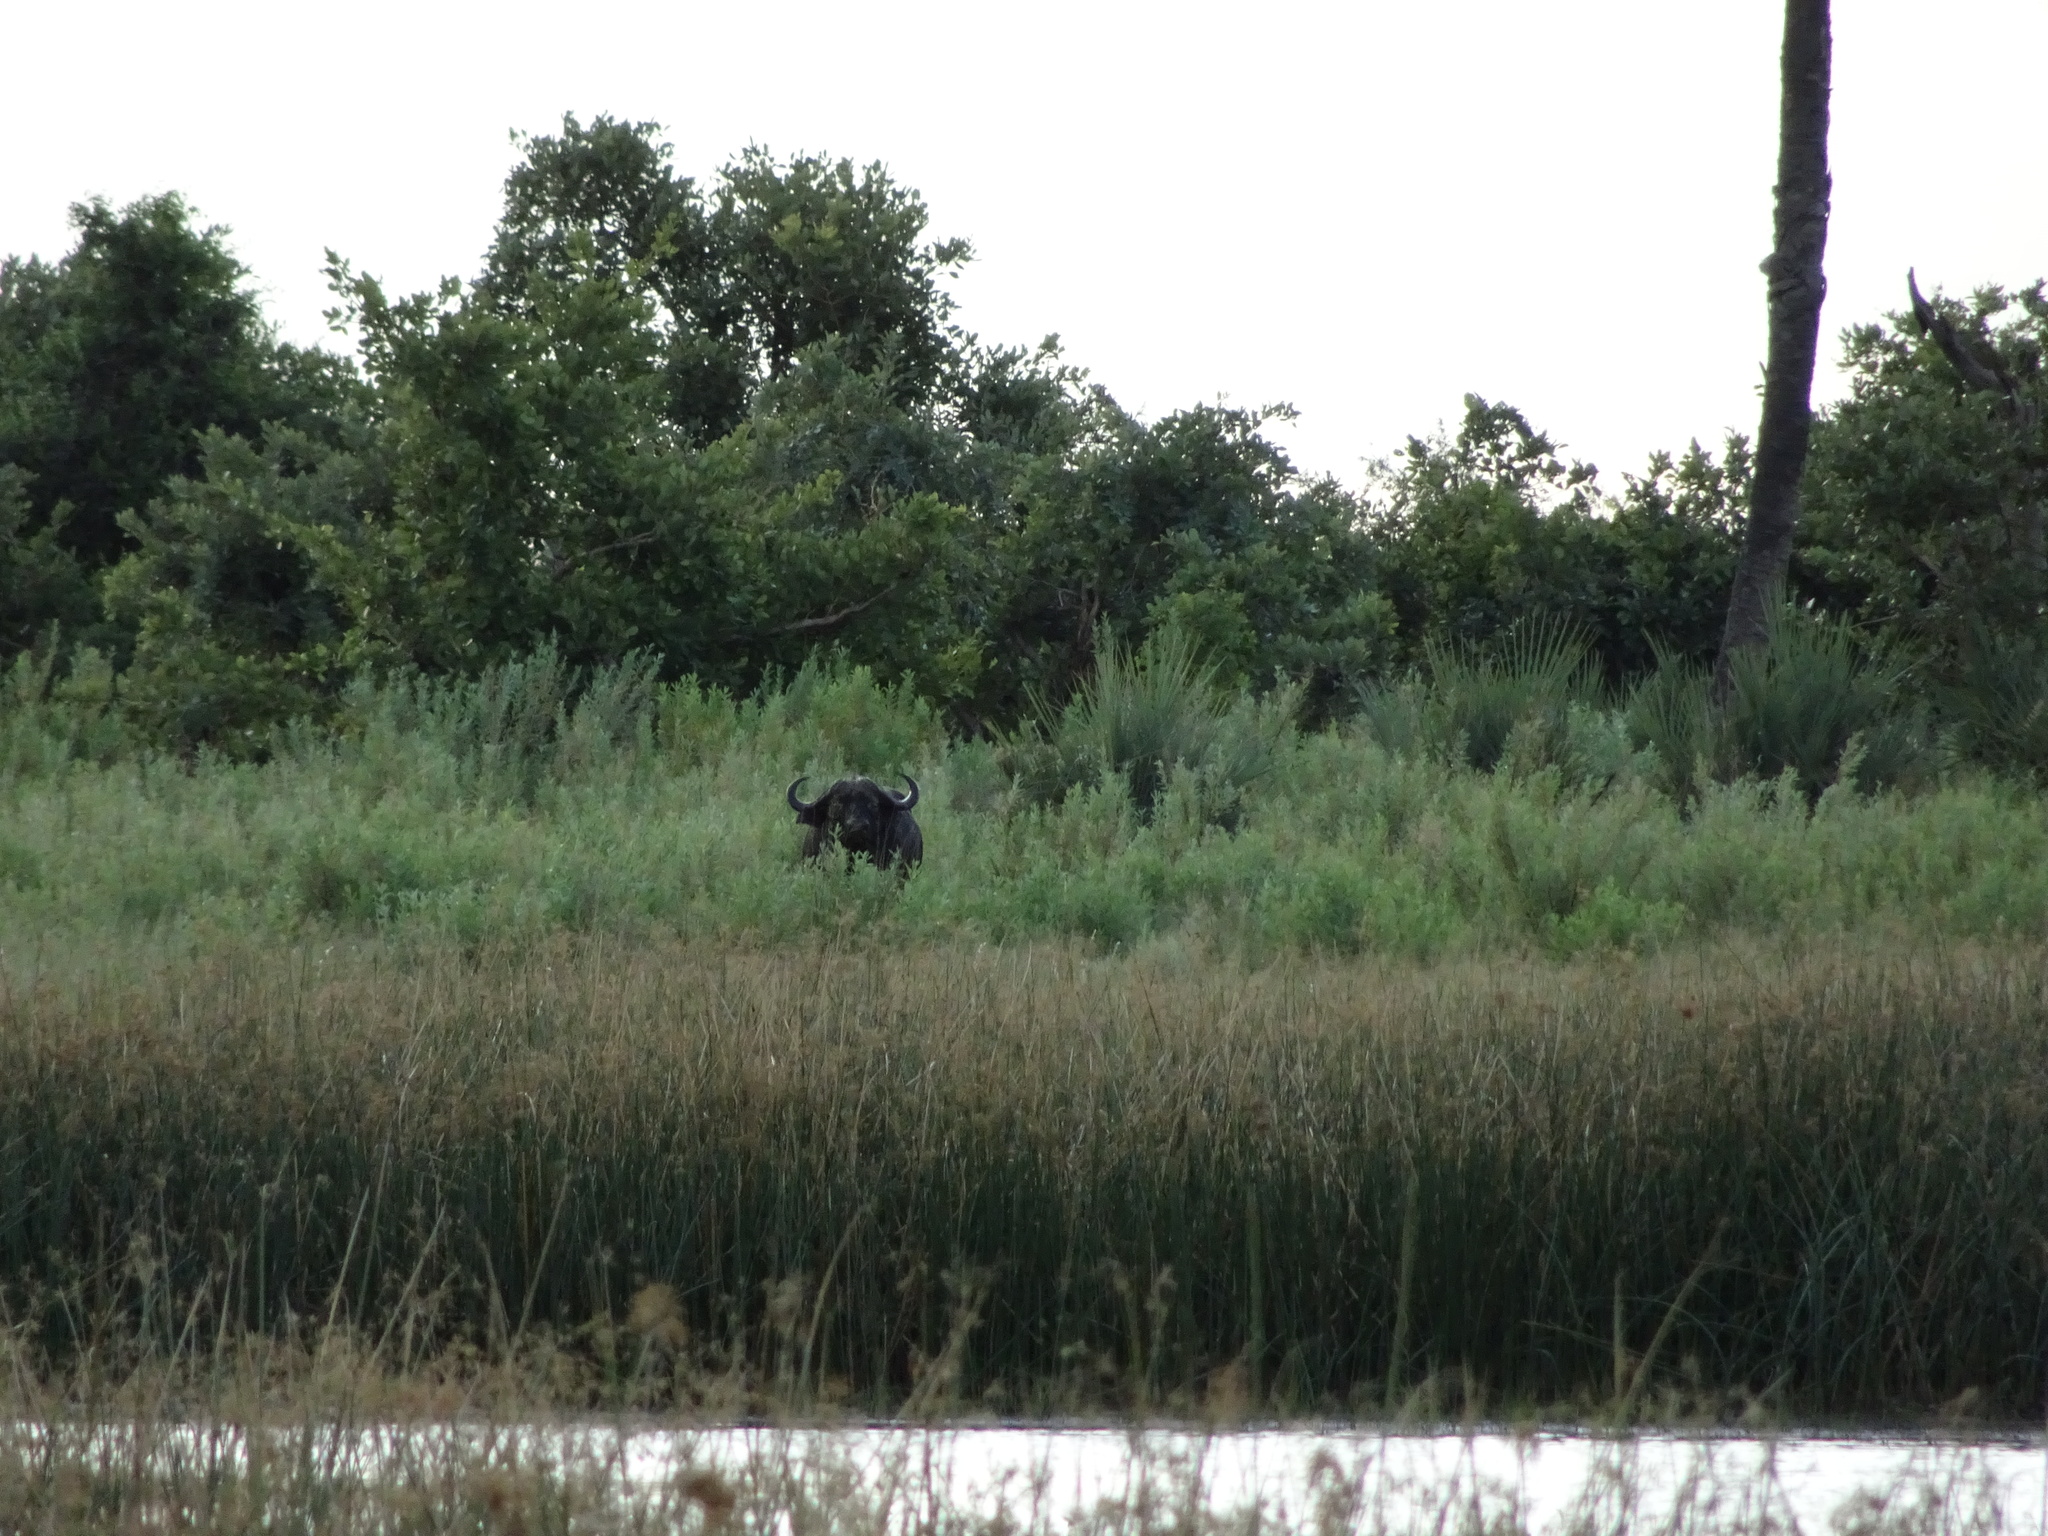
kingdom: Animalia
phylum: Chordata
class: Mammalia
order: Artiodactyla
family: Bovidae
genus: Syncerus
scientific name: Syncerus caffer
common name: African buffalo
